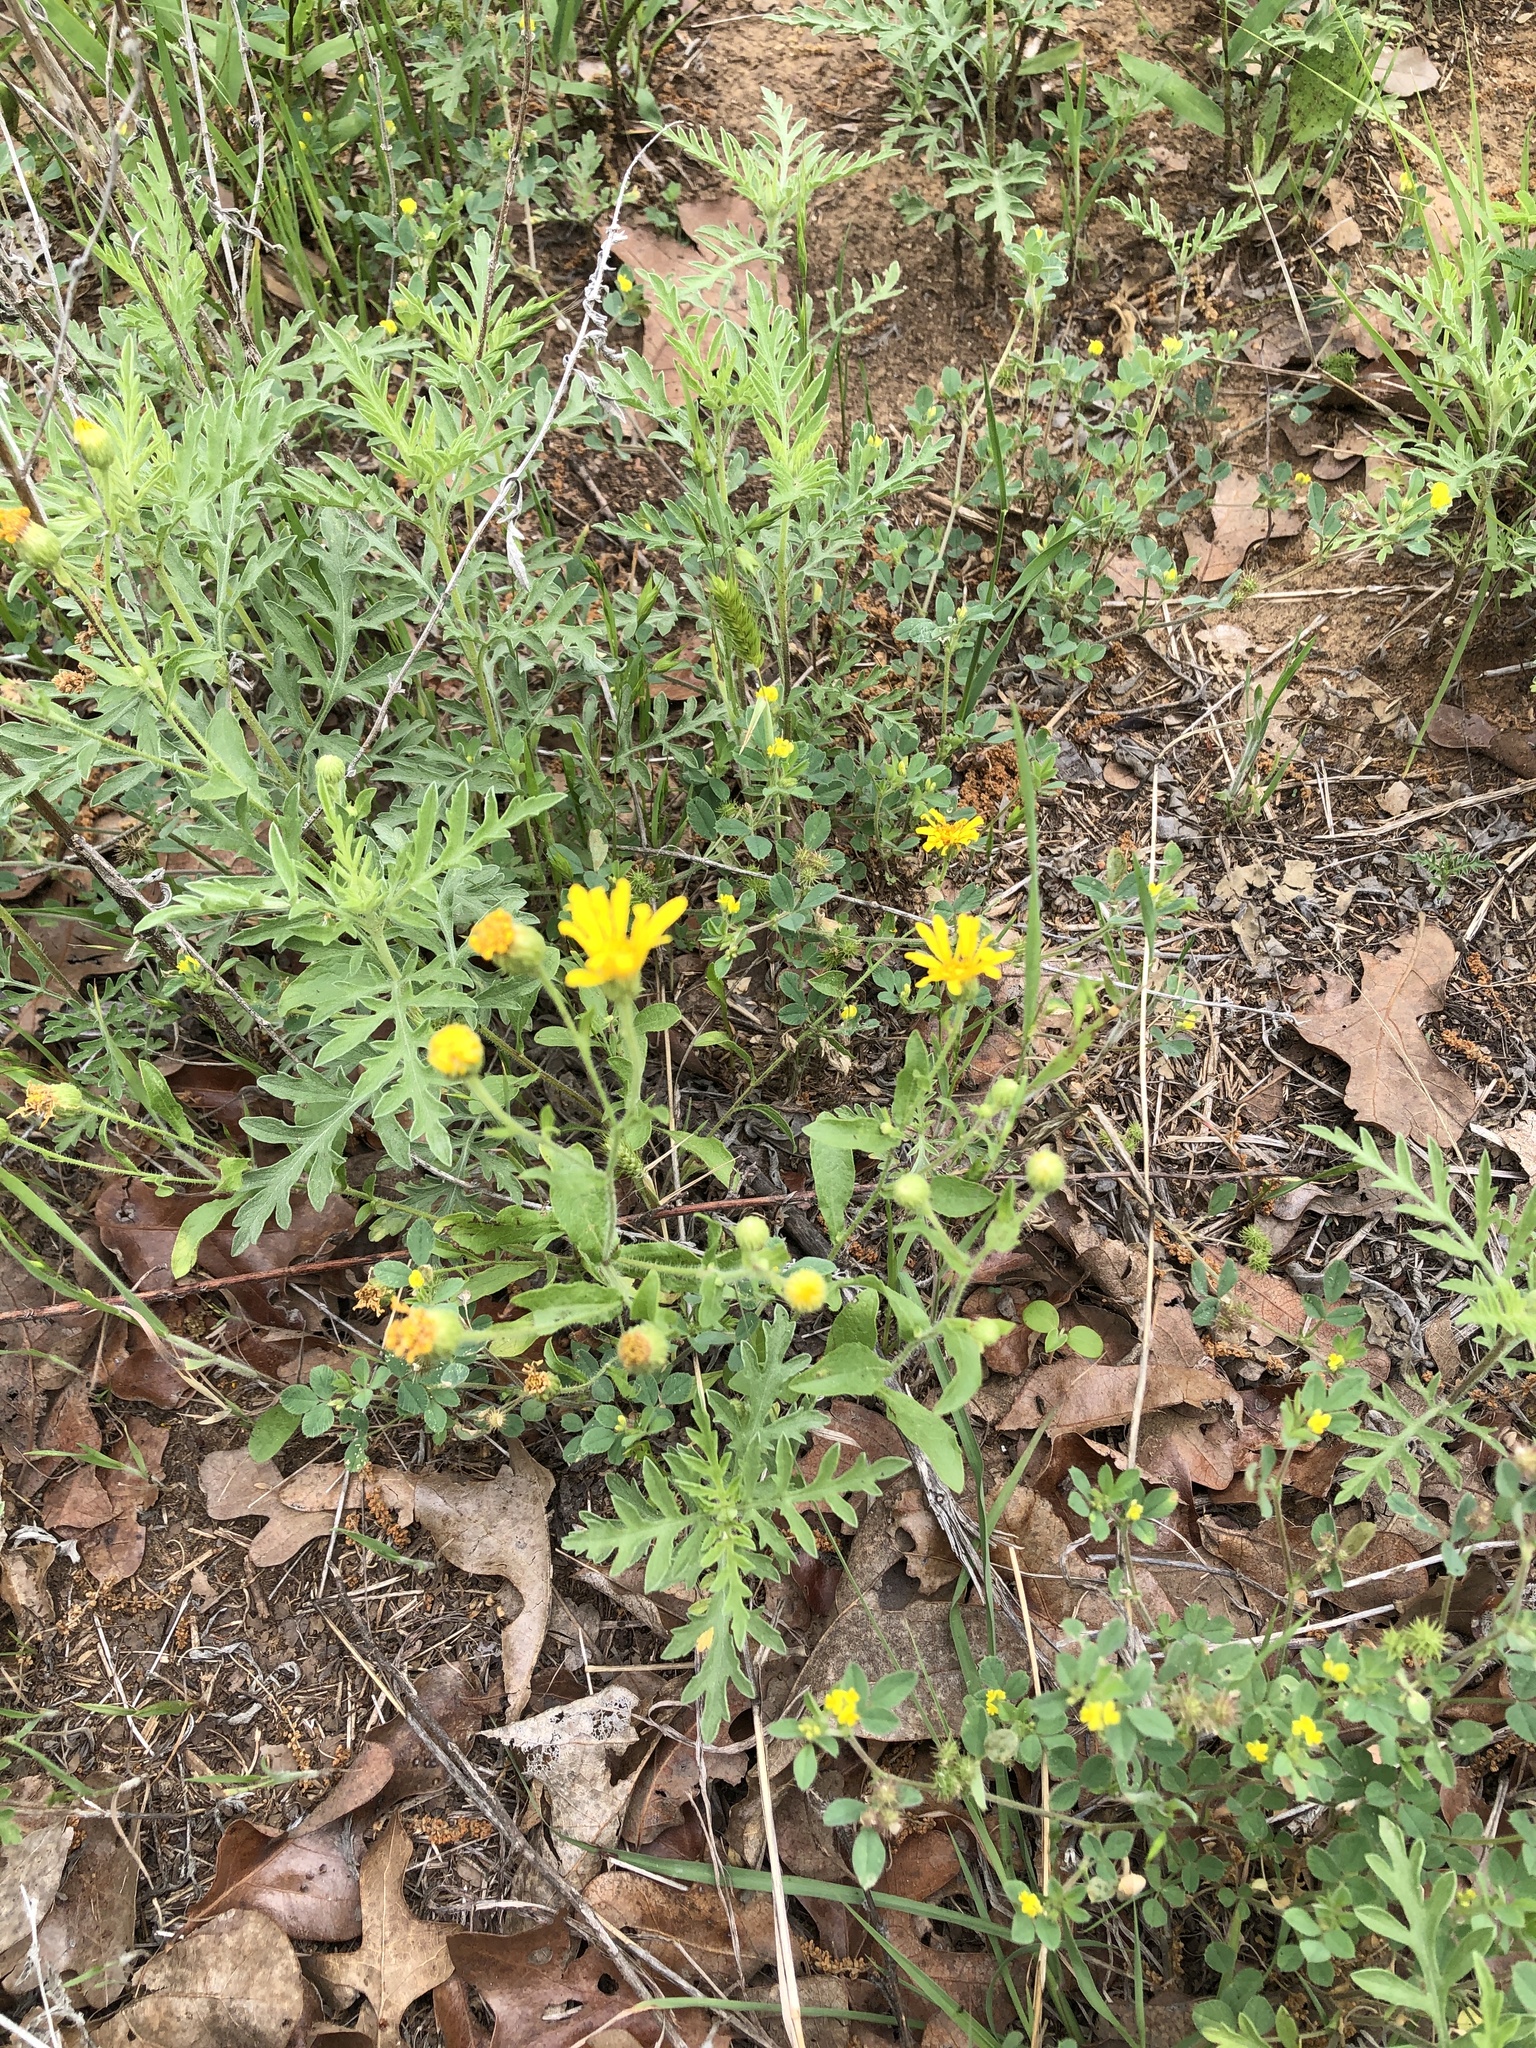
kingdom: Plantae
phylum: Tracheophyta
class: Magnoliopsida
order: Asterales
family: Asteraceae
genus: Heterotheca
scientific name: Heterotheca subaxillaris
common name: Camphorweed
